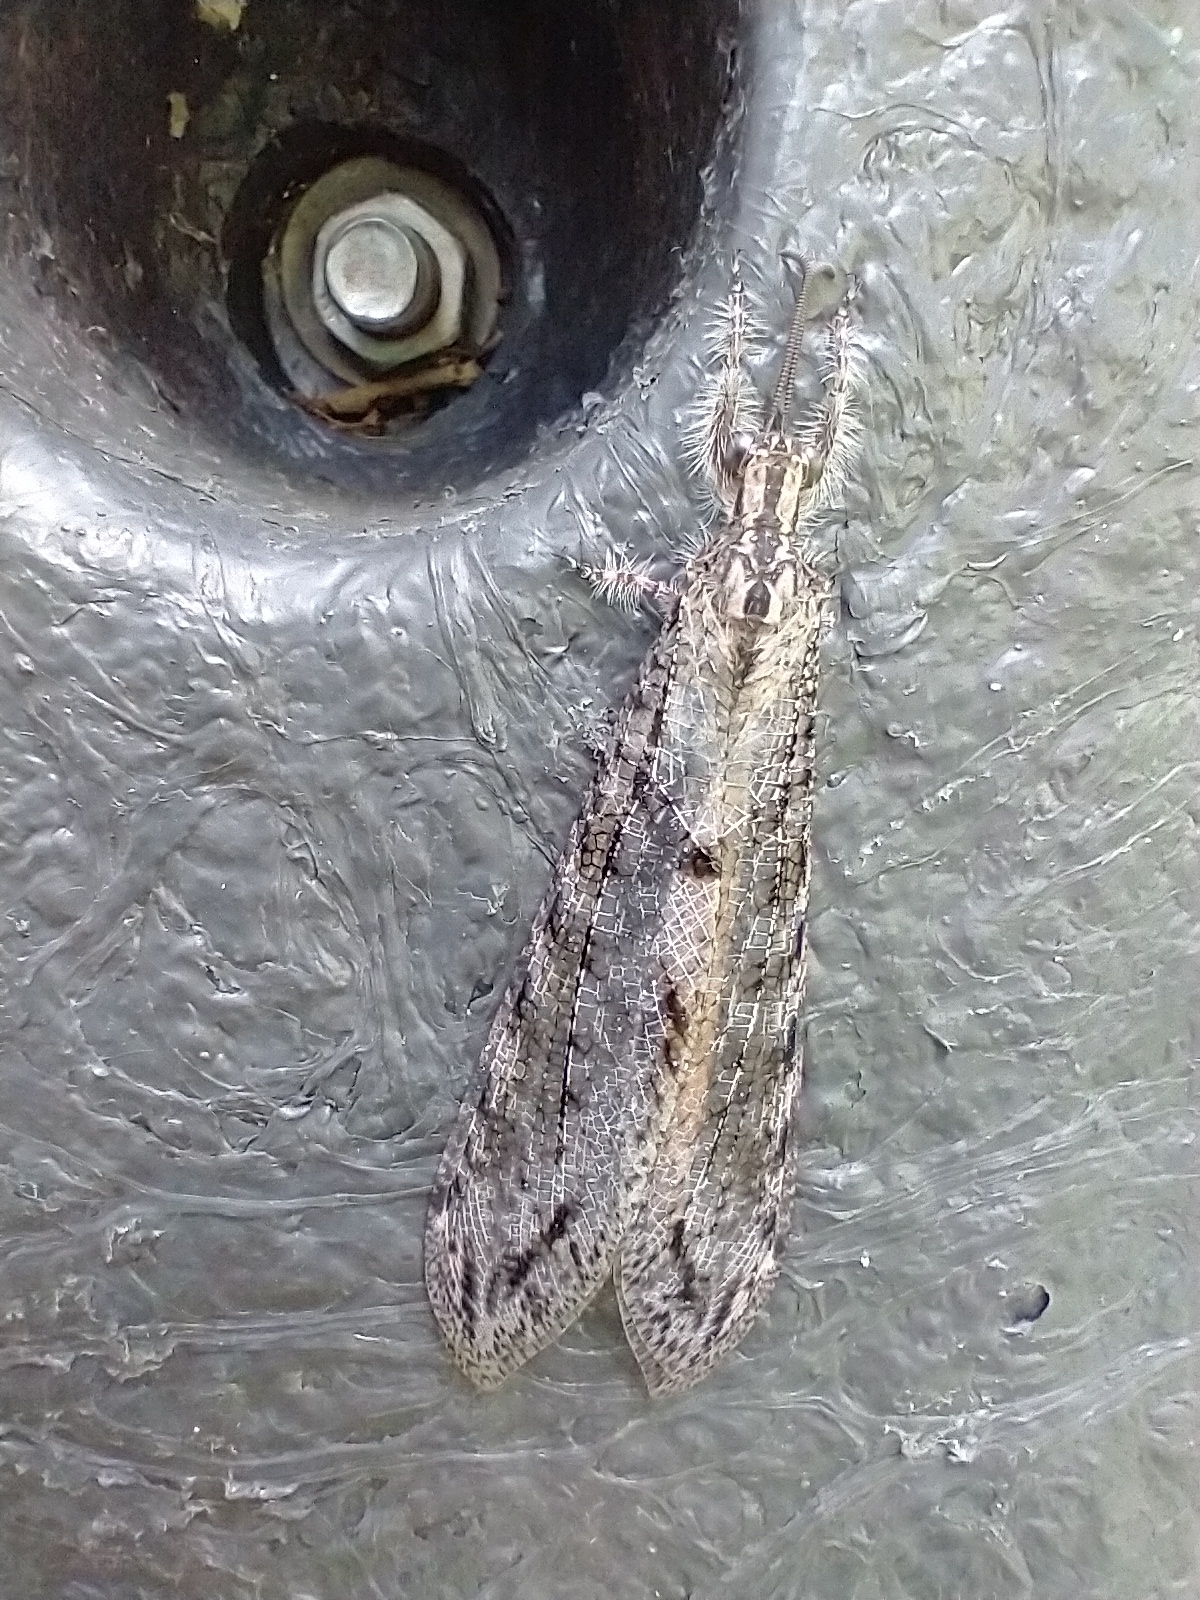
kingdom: Animalia
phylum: Arthropoda
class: Insecta
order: Neuroptera
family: Myrmeleontidae
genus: Vella
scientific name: Vella americana
